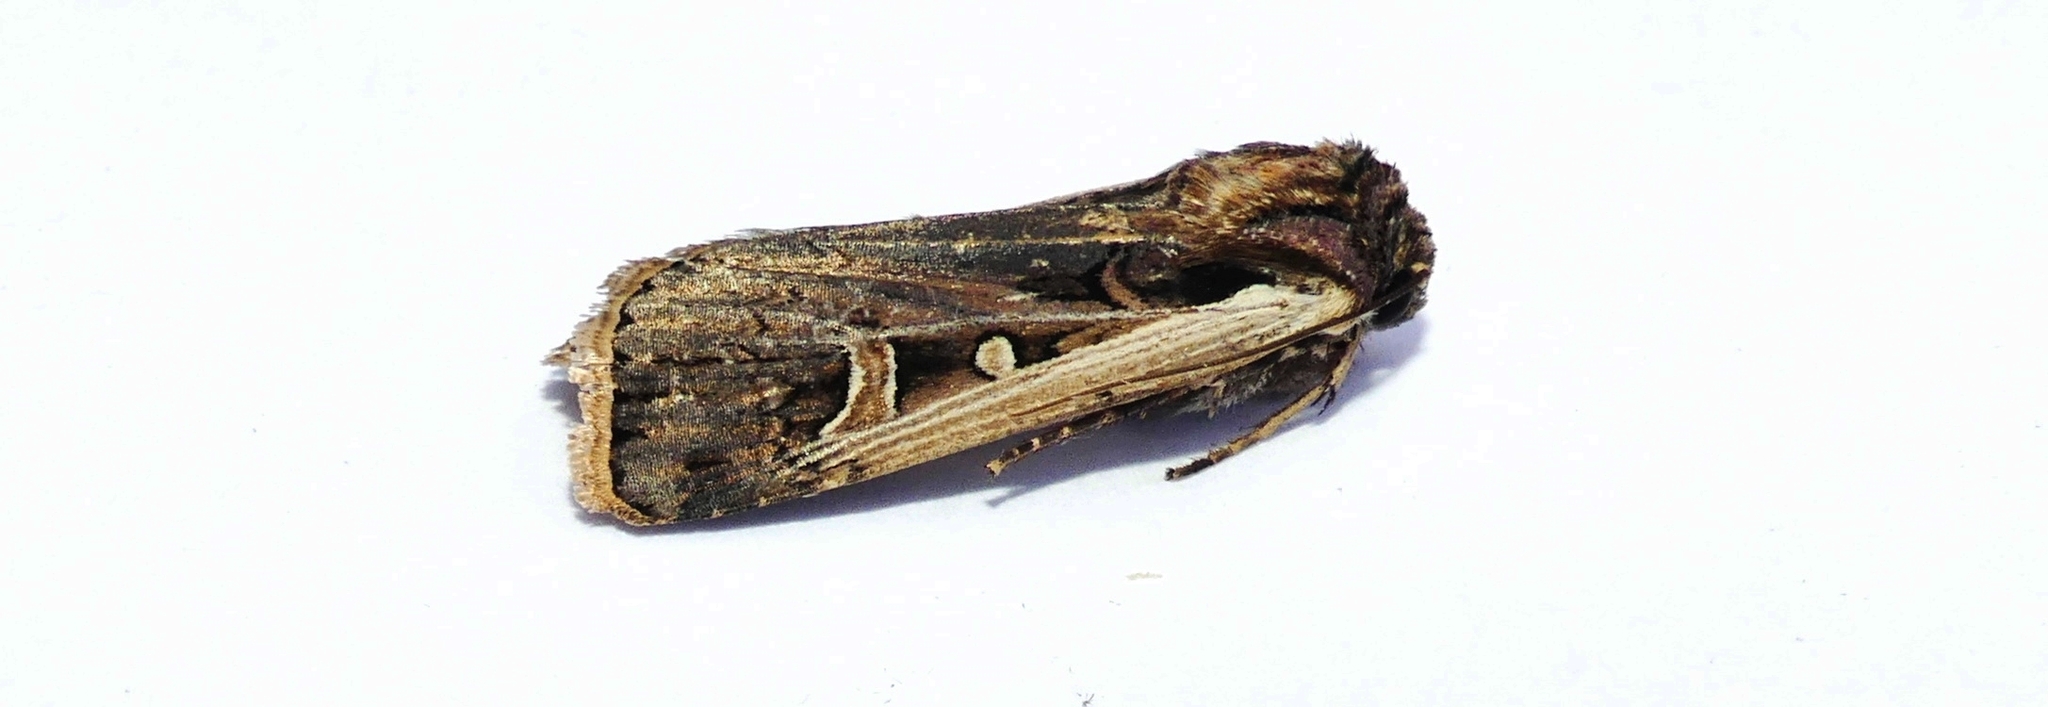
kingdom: Animalia
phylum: Arthropoda
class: Insecta
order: Lepidoptera
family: Noctuidae
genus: Striacosta
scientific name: Striacosta albicosta
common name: Western bean cutworm moth
